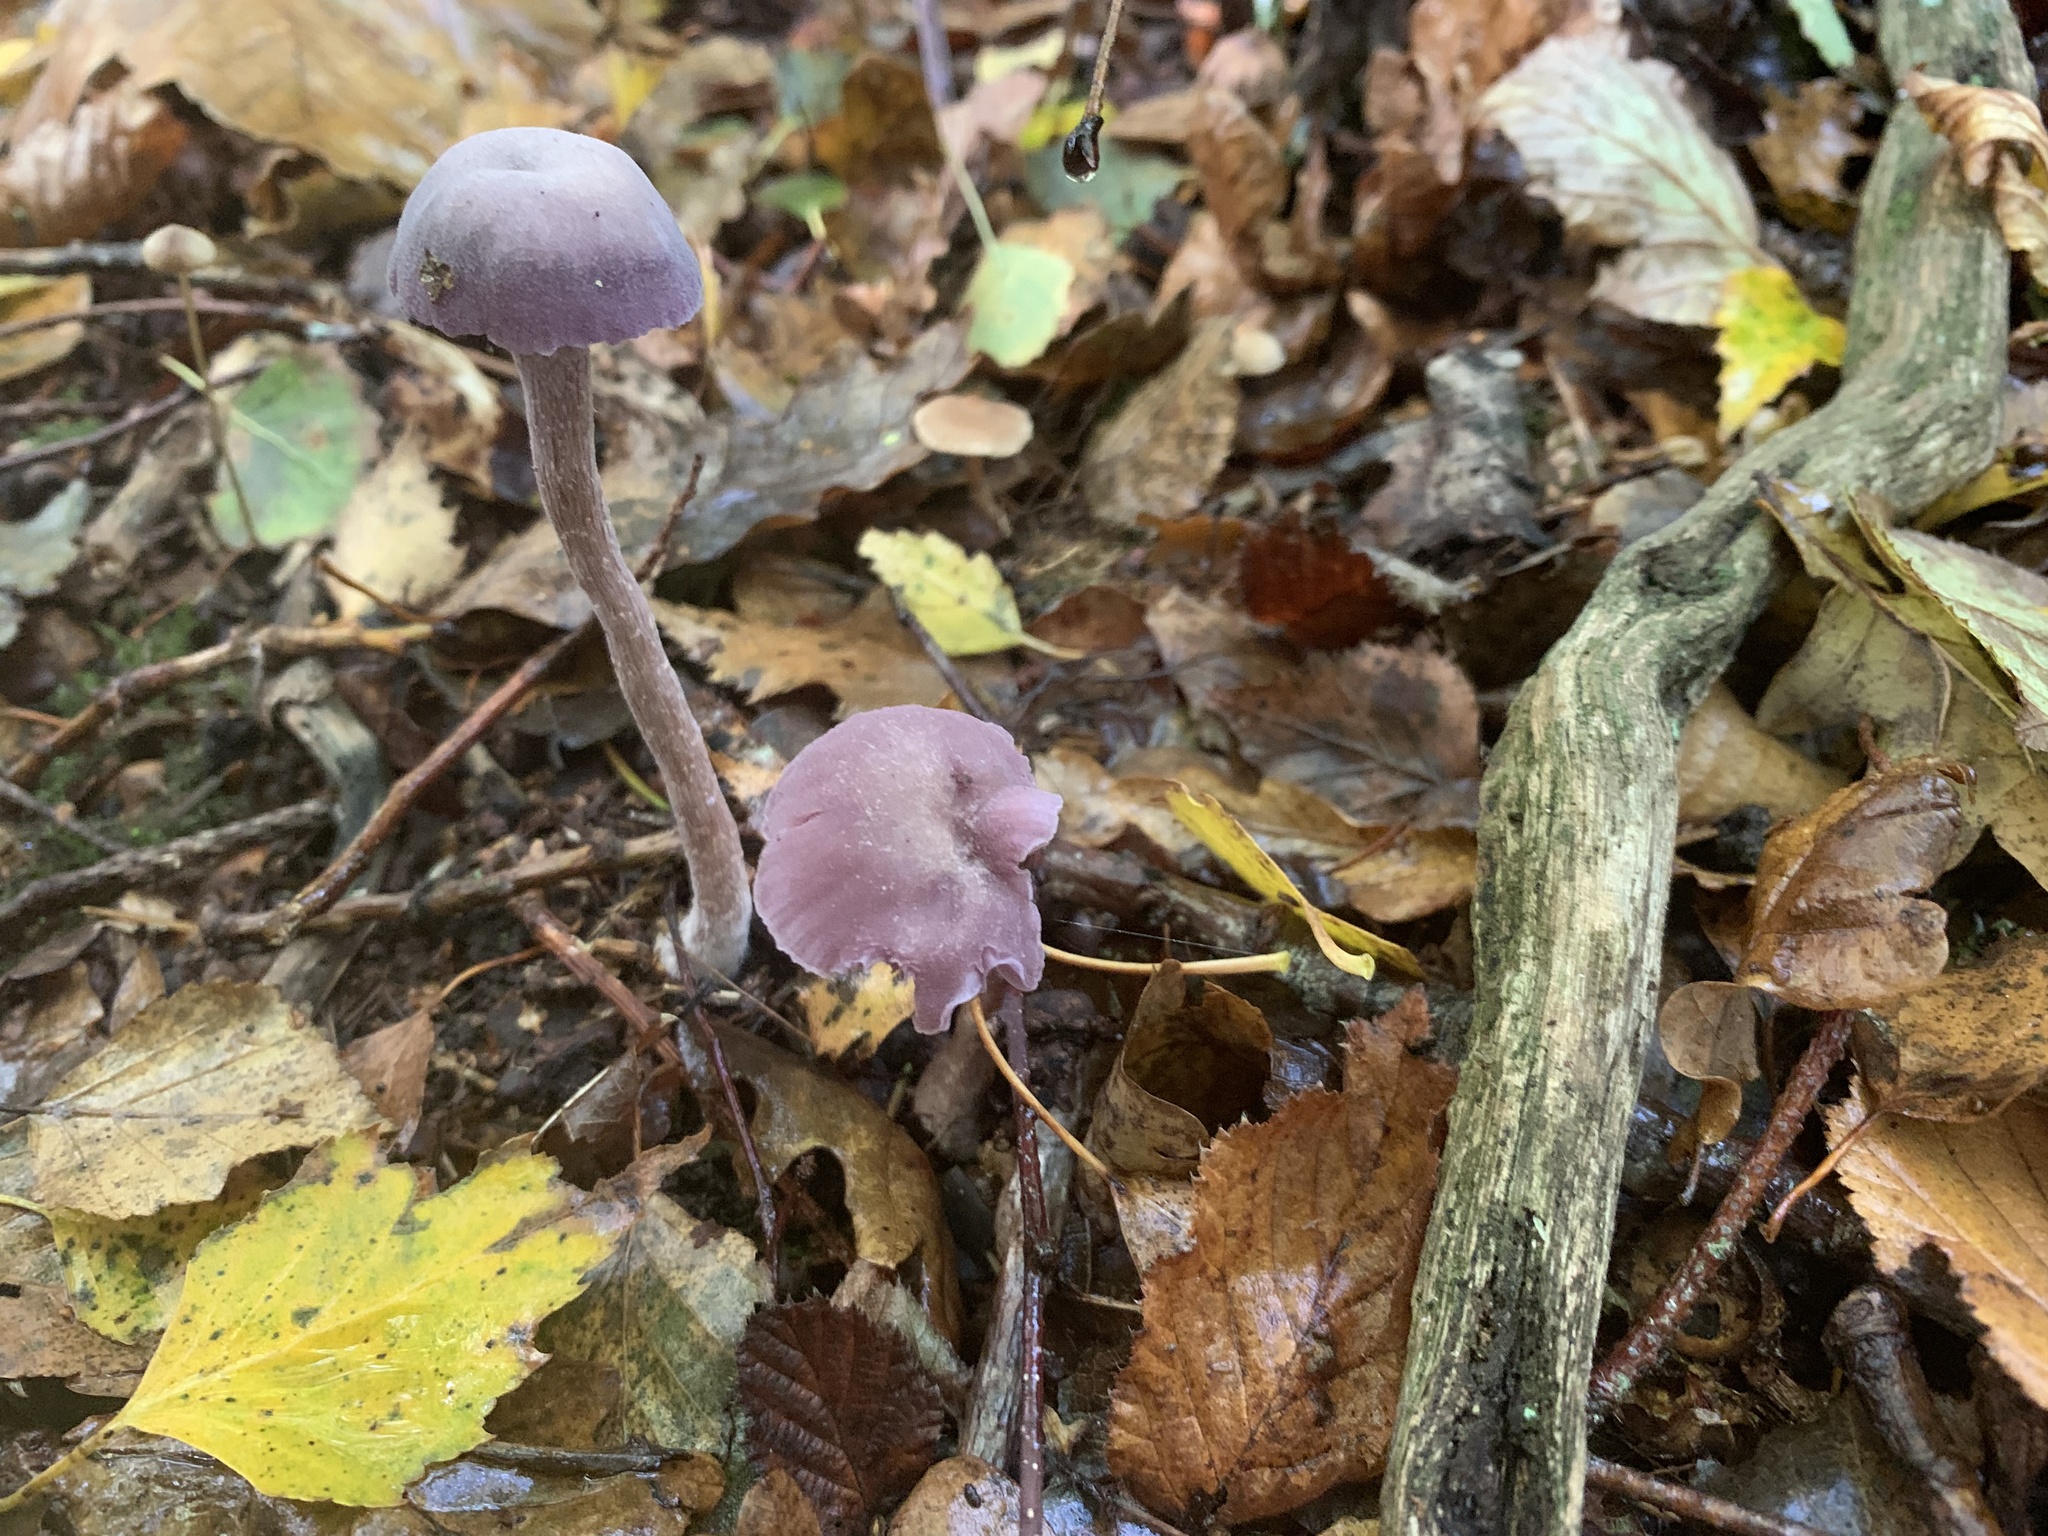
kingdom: Fungi
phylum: Basidiomycota
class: Agaricomycetes
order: Agaricales
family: Hydnangiaceae
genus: Laccaria
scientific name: Laccaria amethystina
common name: Amethyst deceiver
